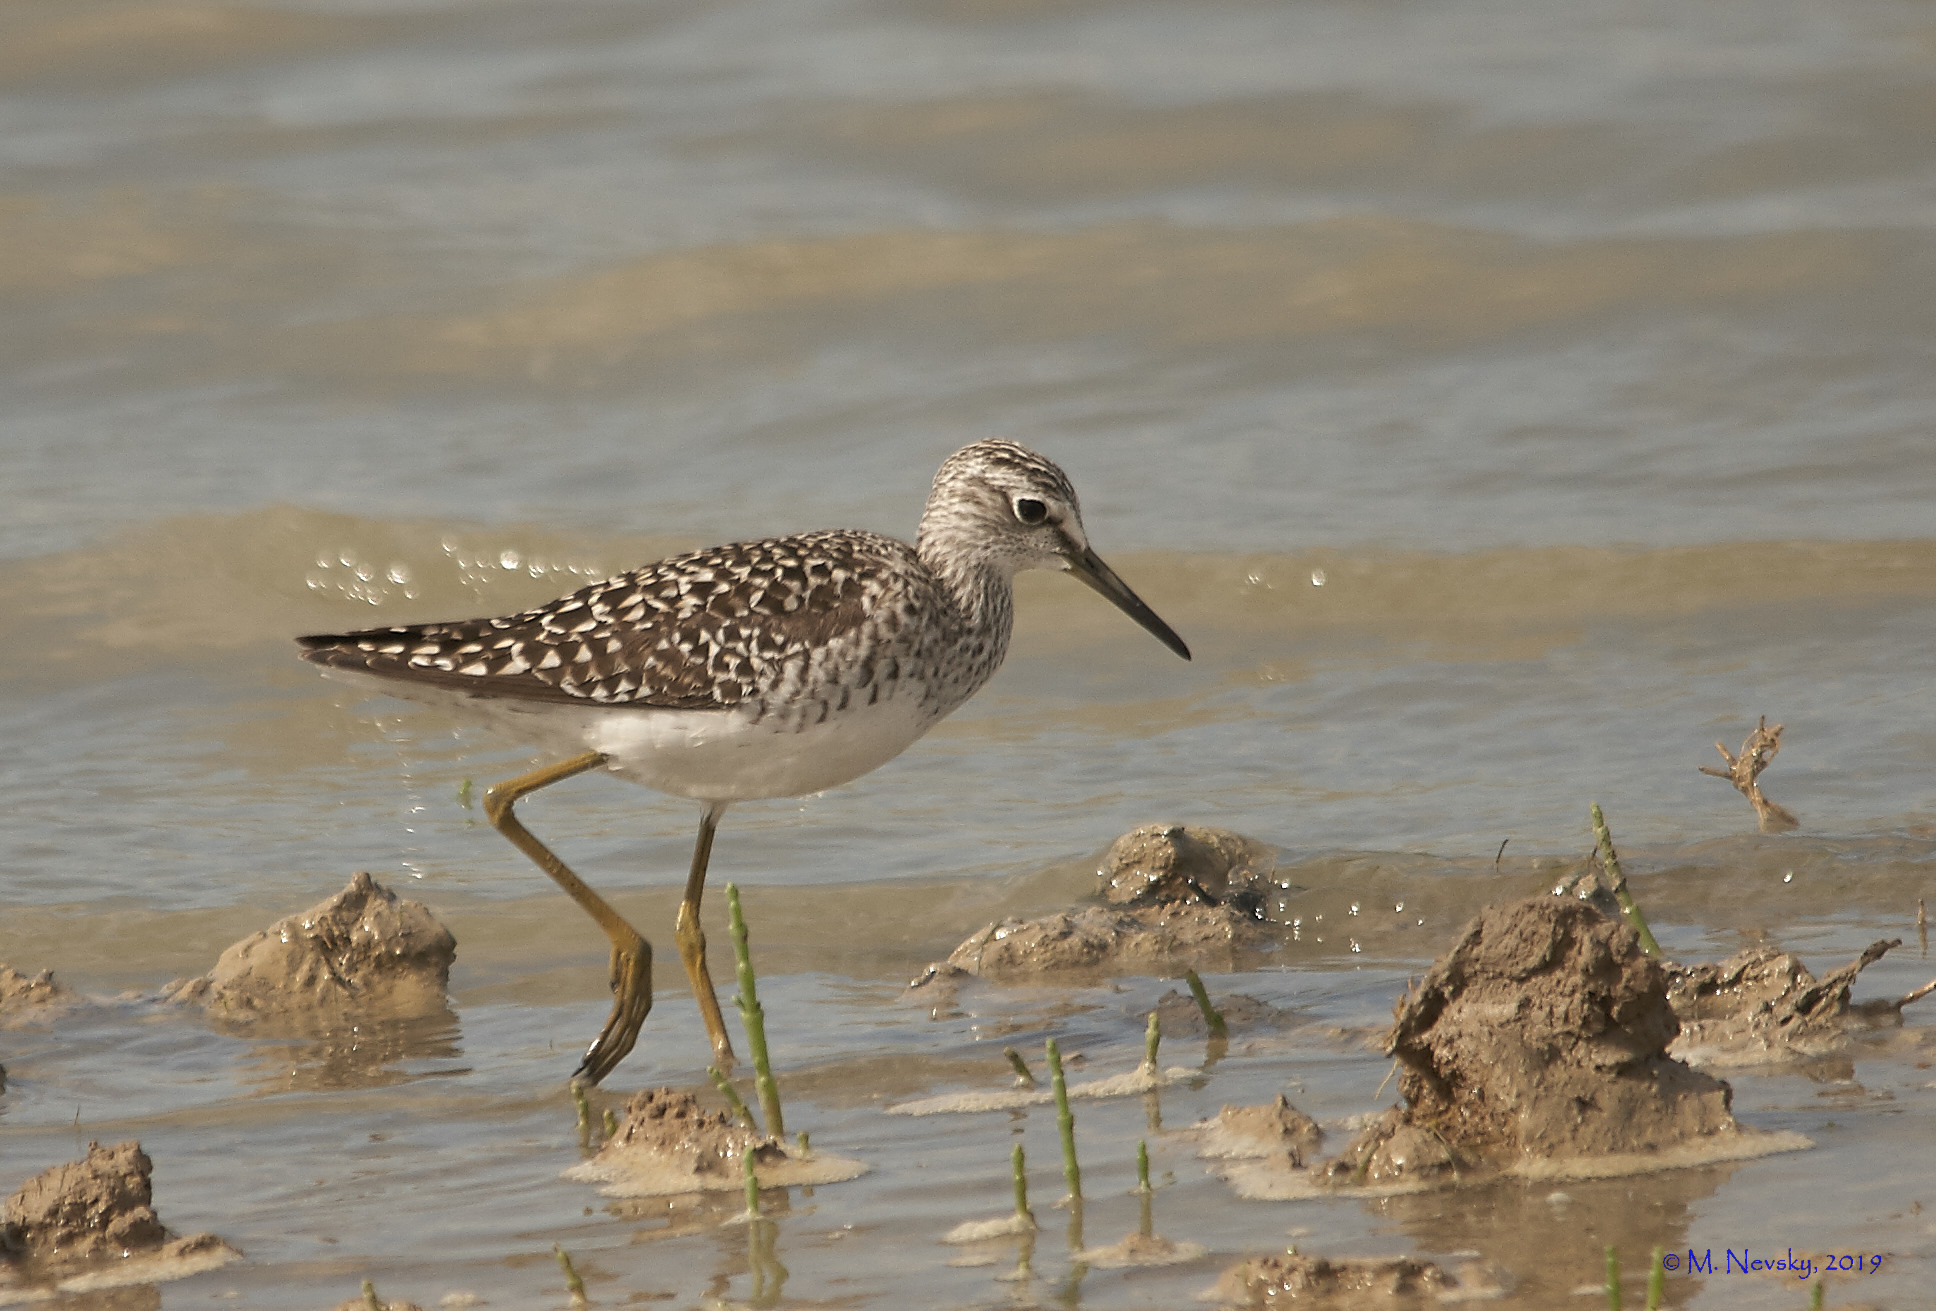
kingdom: Animalia
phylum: Chordata
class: Aves
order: Charadriiformes
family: Scolopacidae
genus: Tringa
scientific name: Tringa glareola
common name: Wood sandpiper
